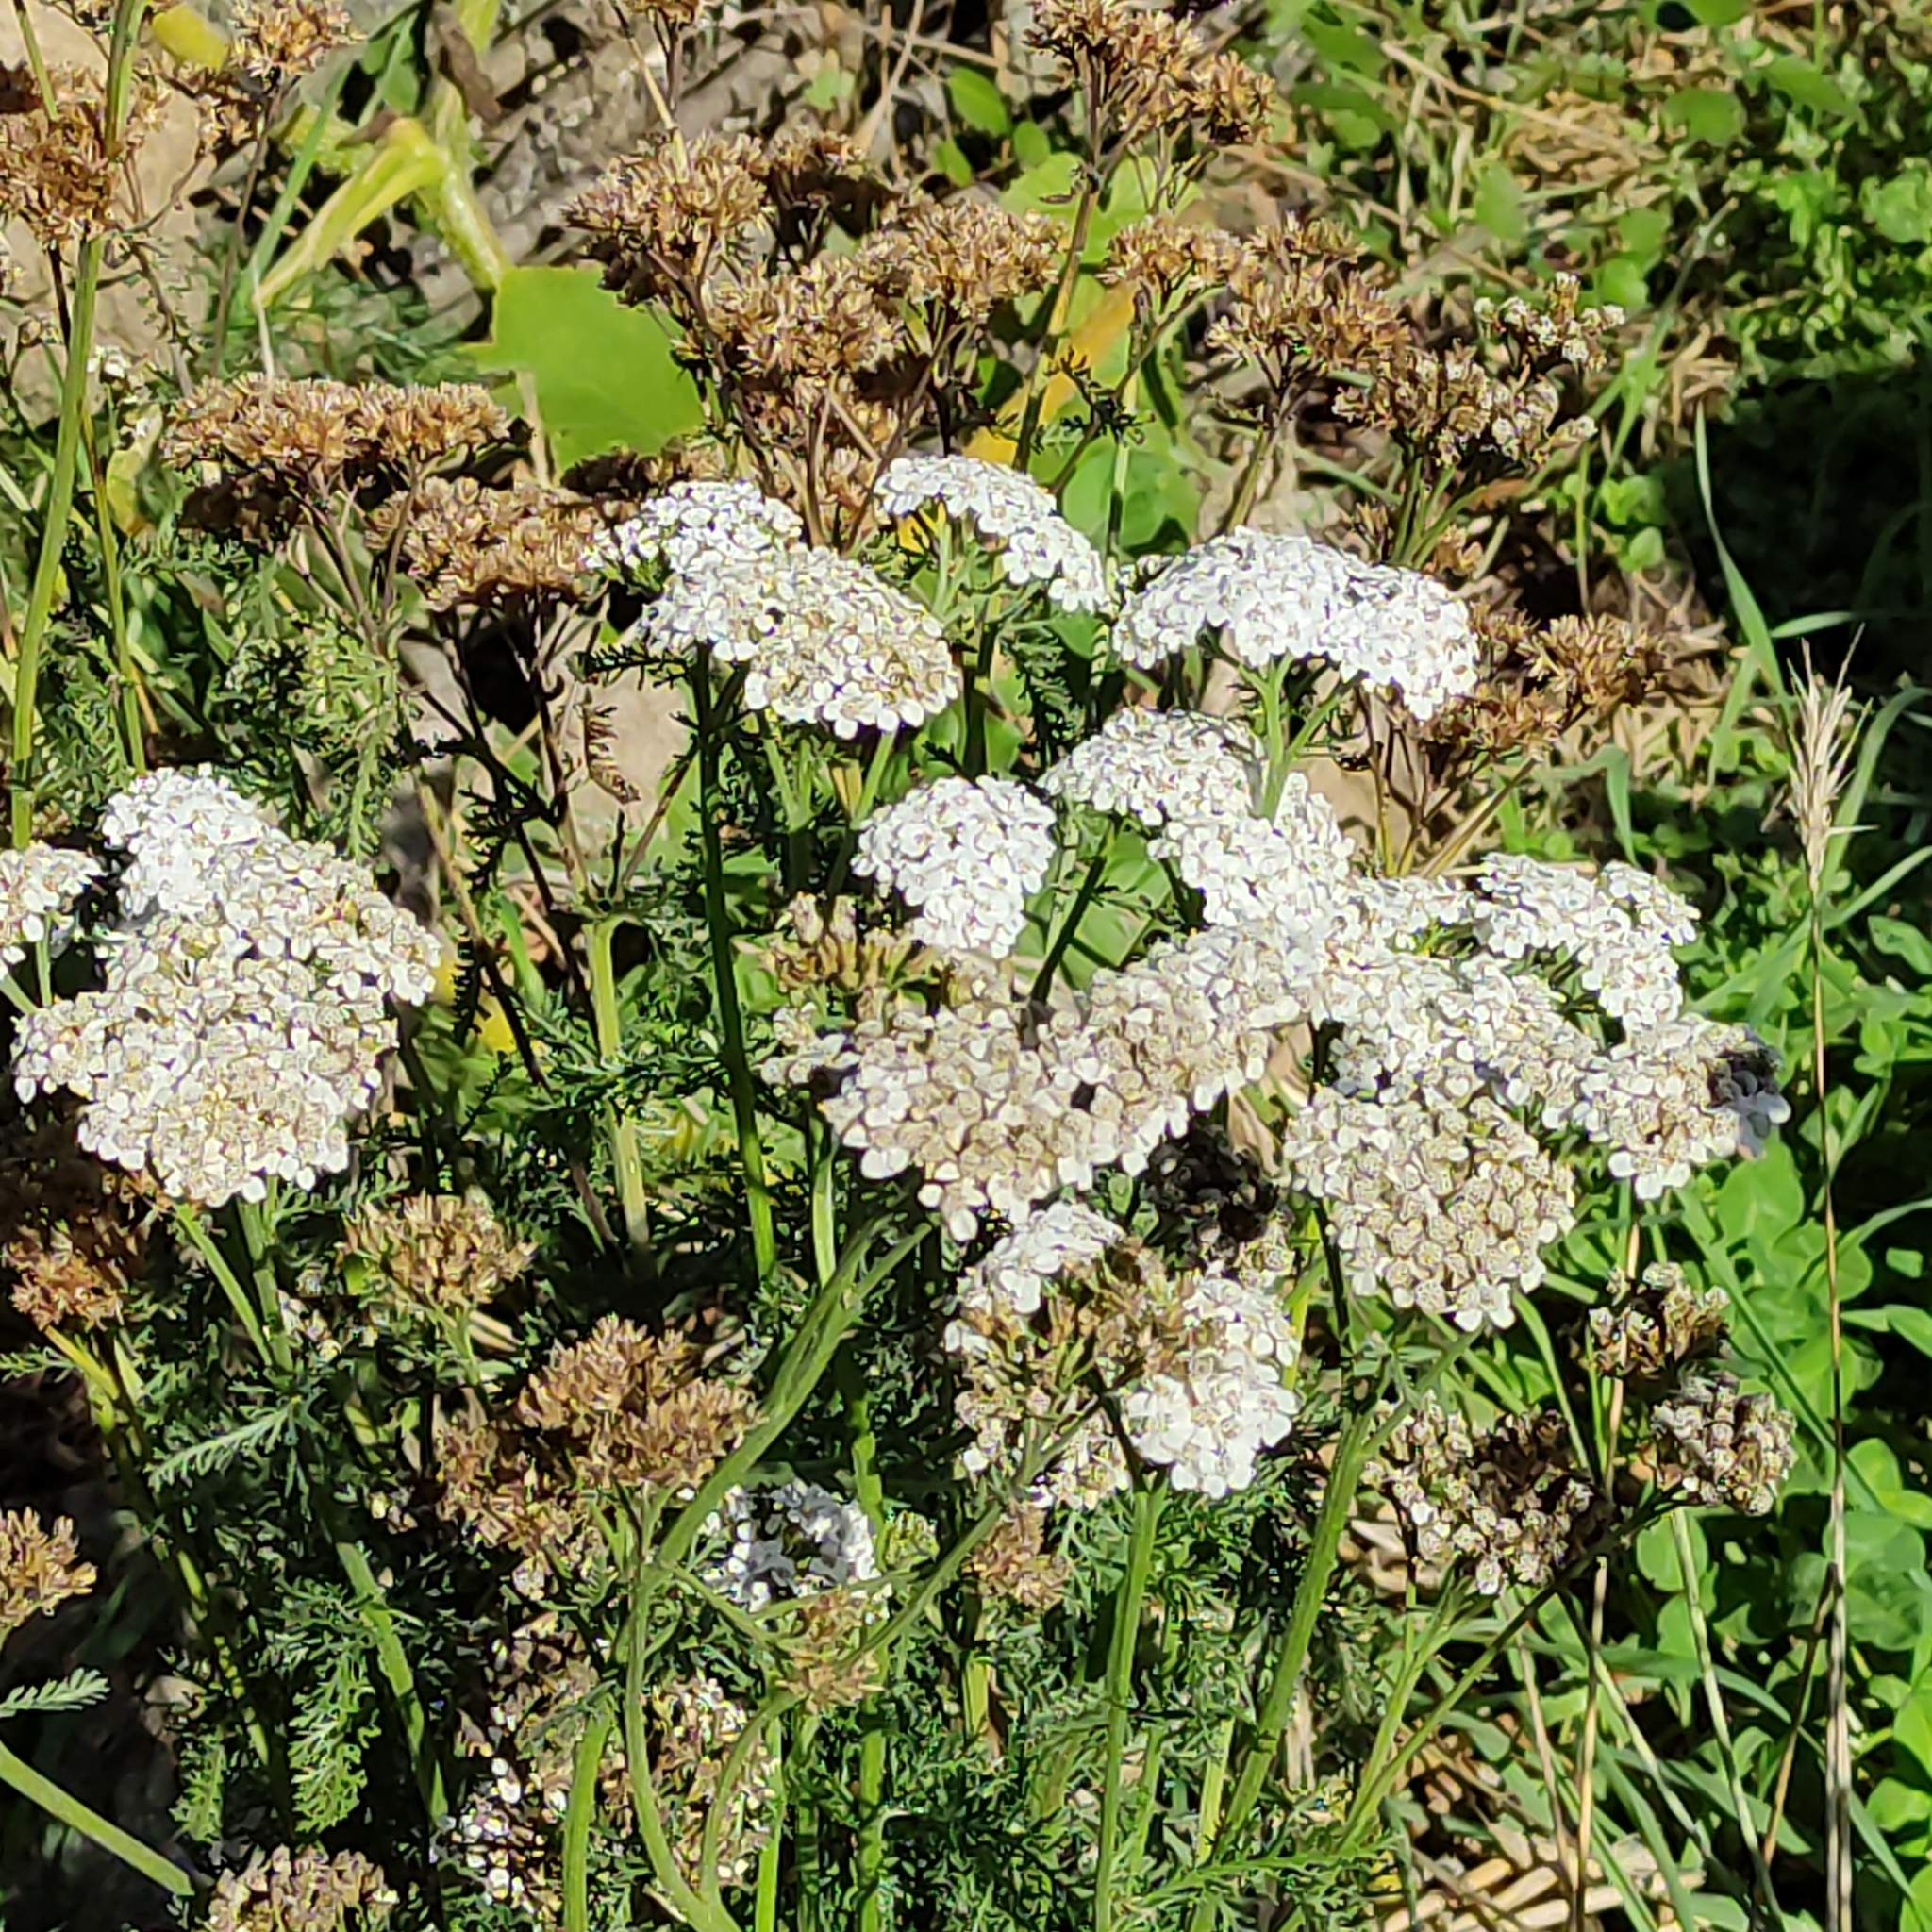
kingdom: Plantae
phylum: Tracheophyta
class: Magnoliopsida
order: Asterales
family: Asteraceae
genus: Achillea
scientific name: Achillea millefolium
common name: Yarrow
